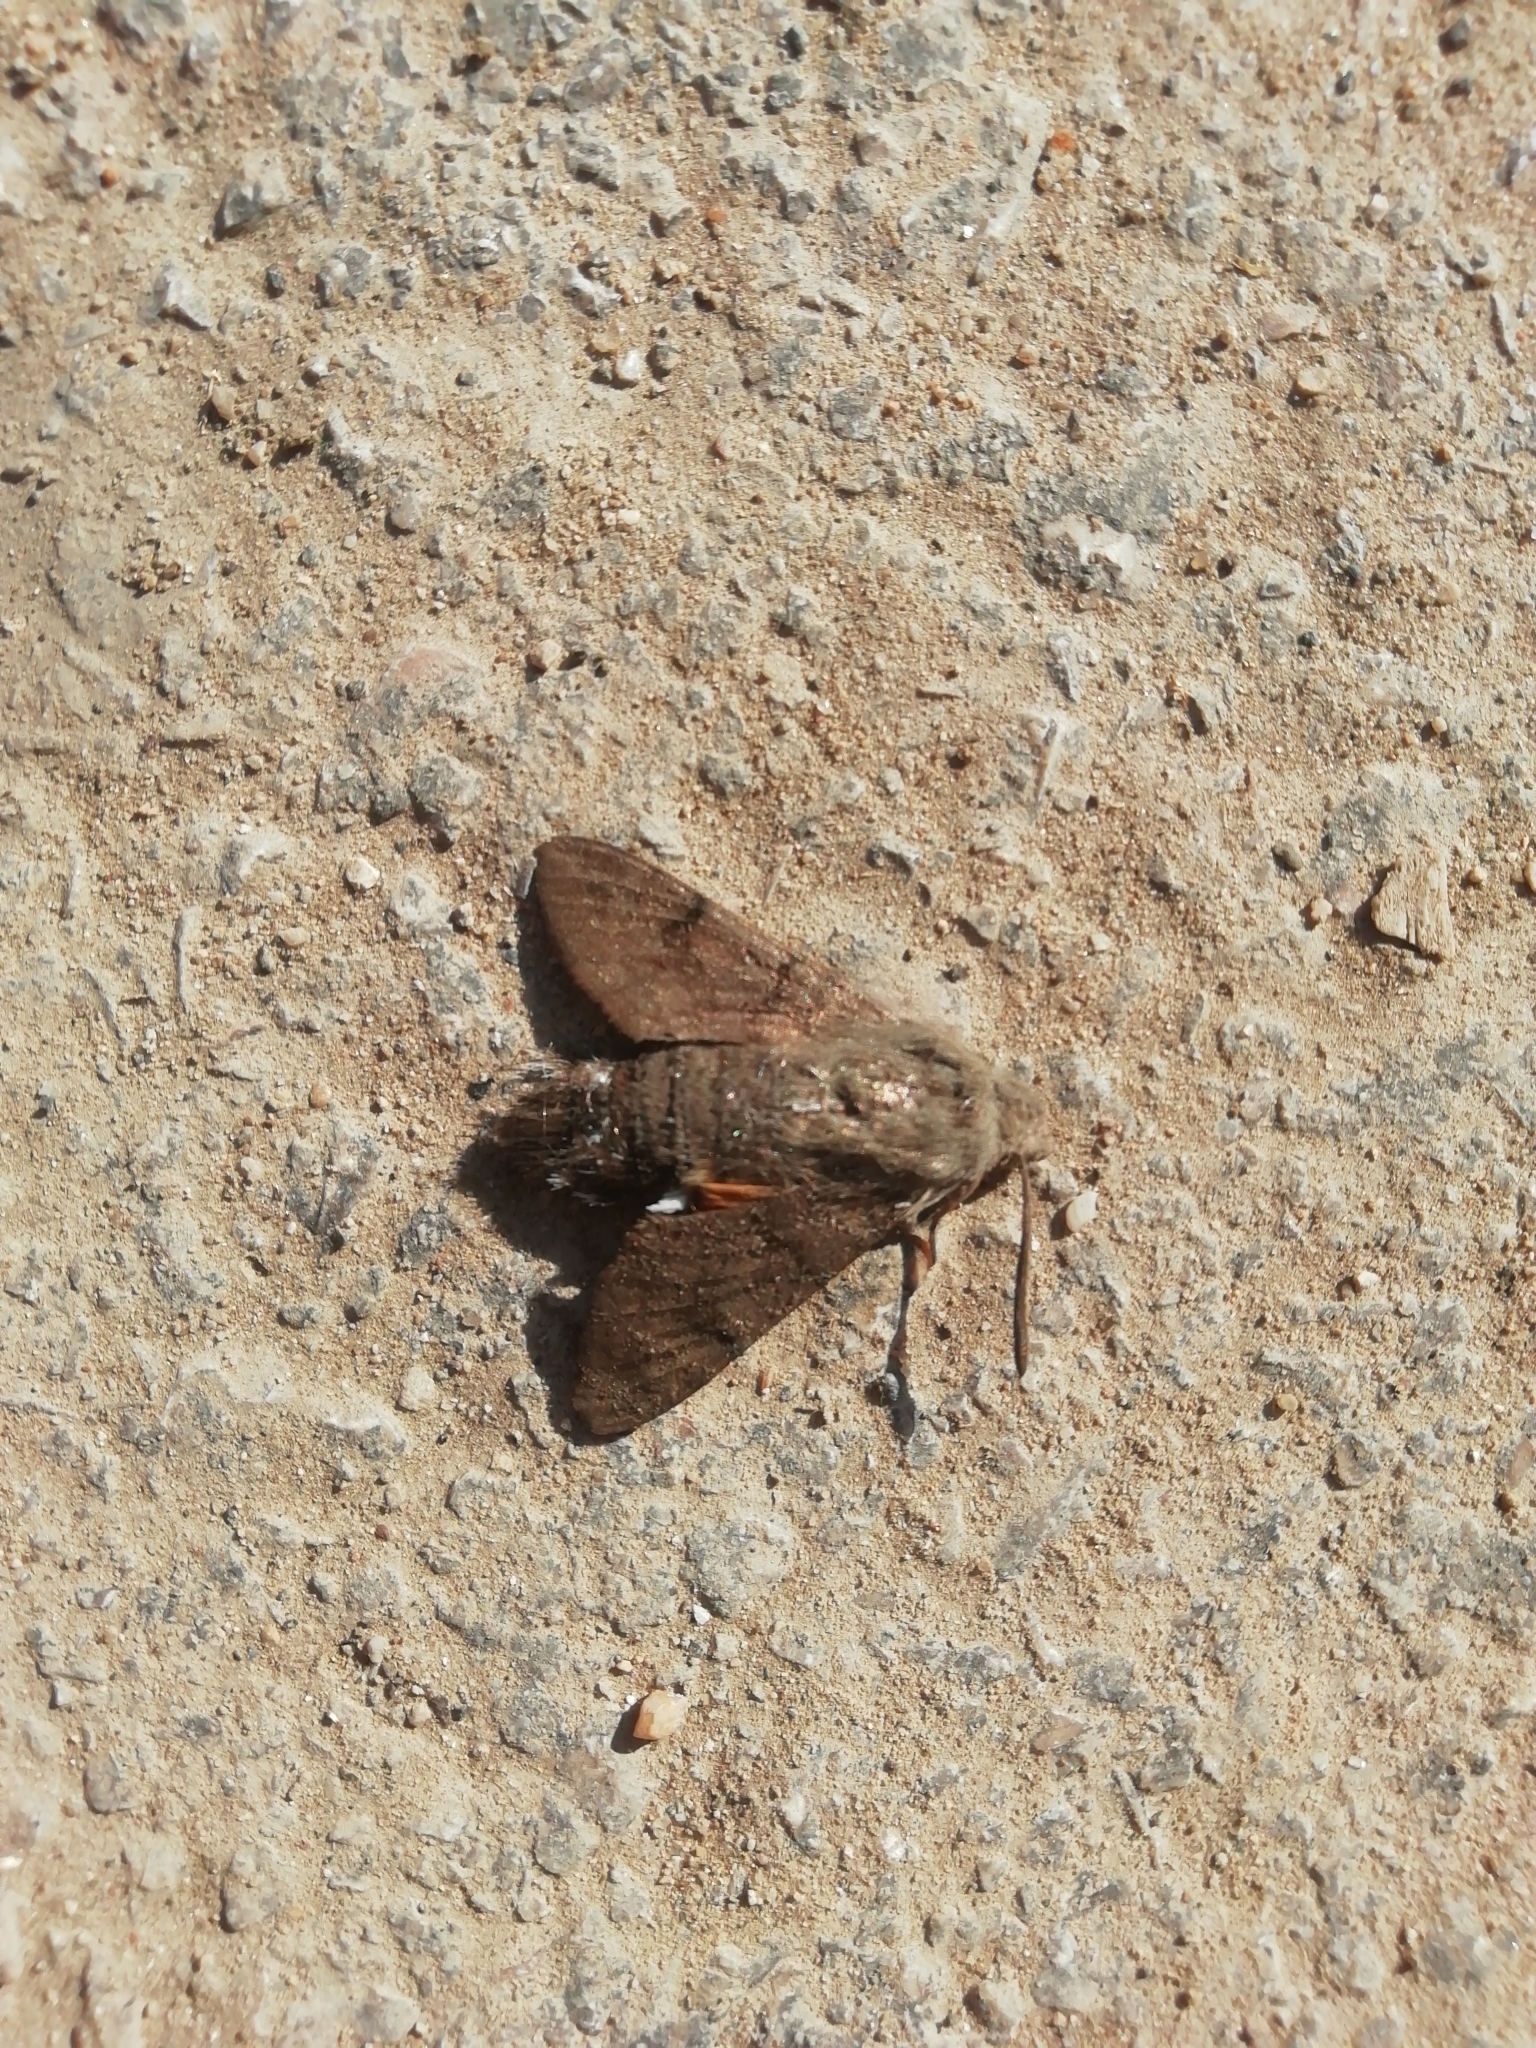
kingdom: Animalia
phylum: Arthropoda
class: Insecta
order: Lepidoptera
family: Sphingidae
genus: Macroglossum
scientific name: Macroglossum stellatarum
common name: Humming-bird hawk-moth
